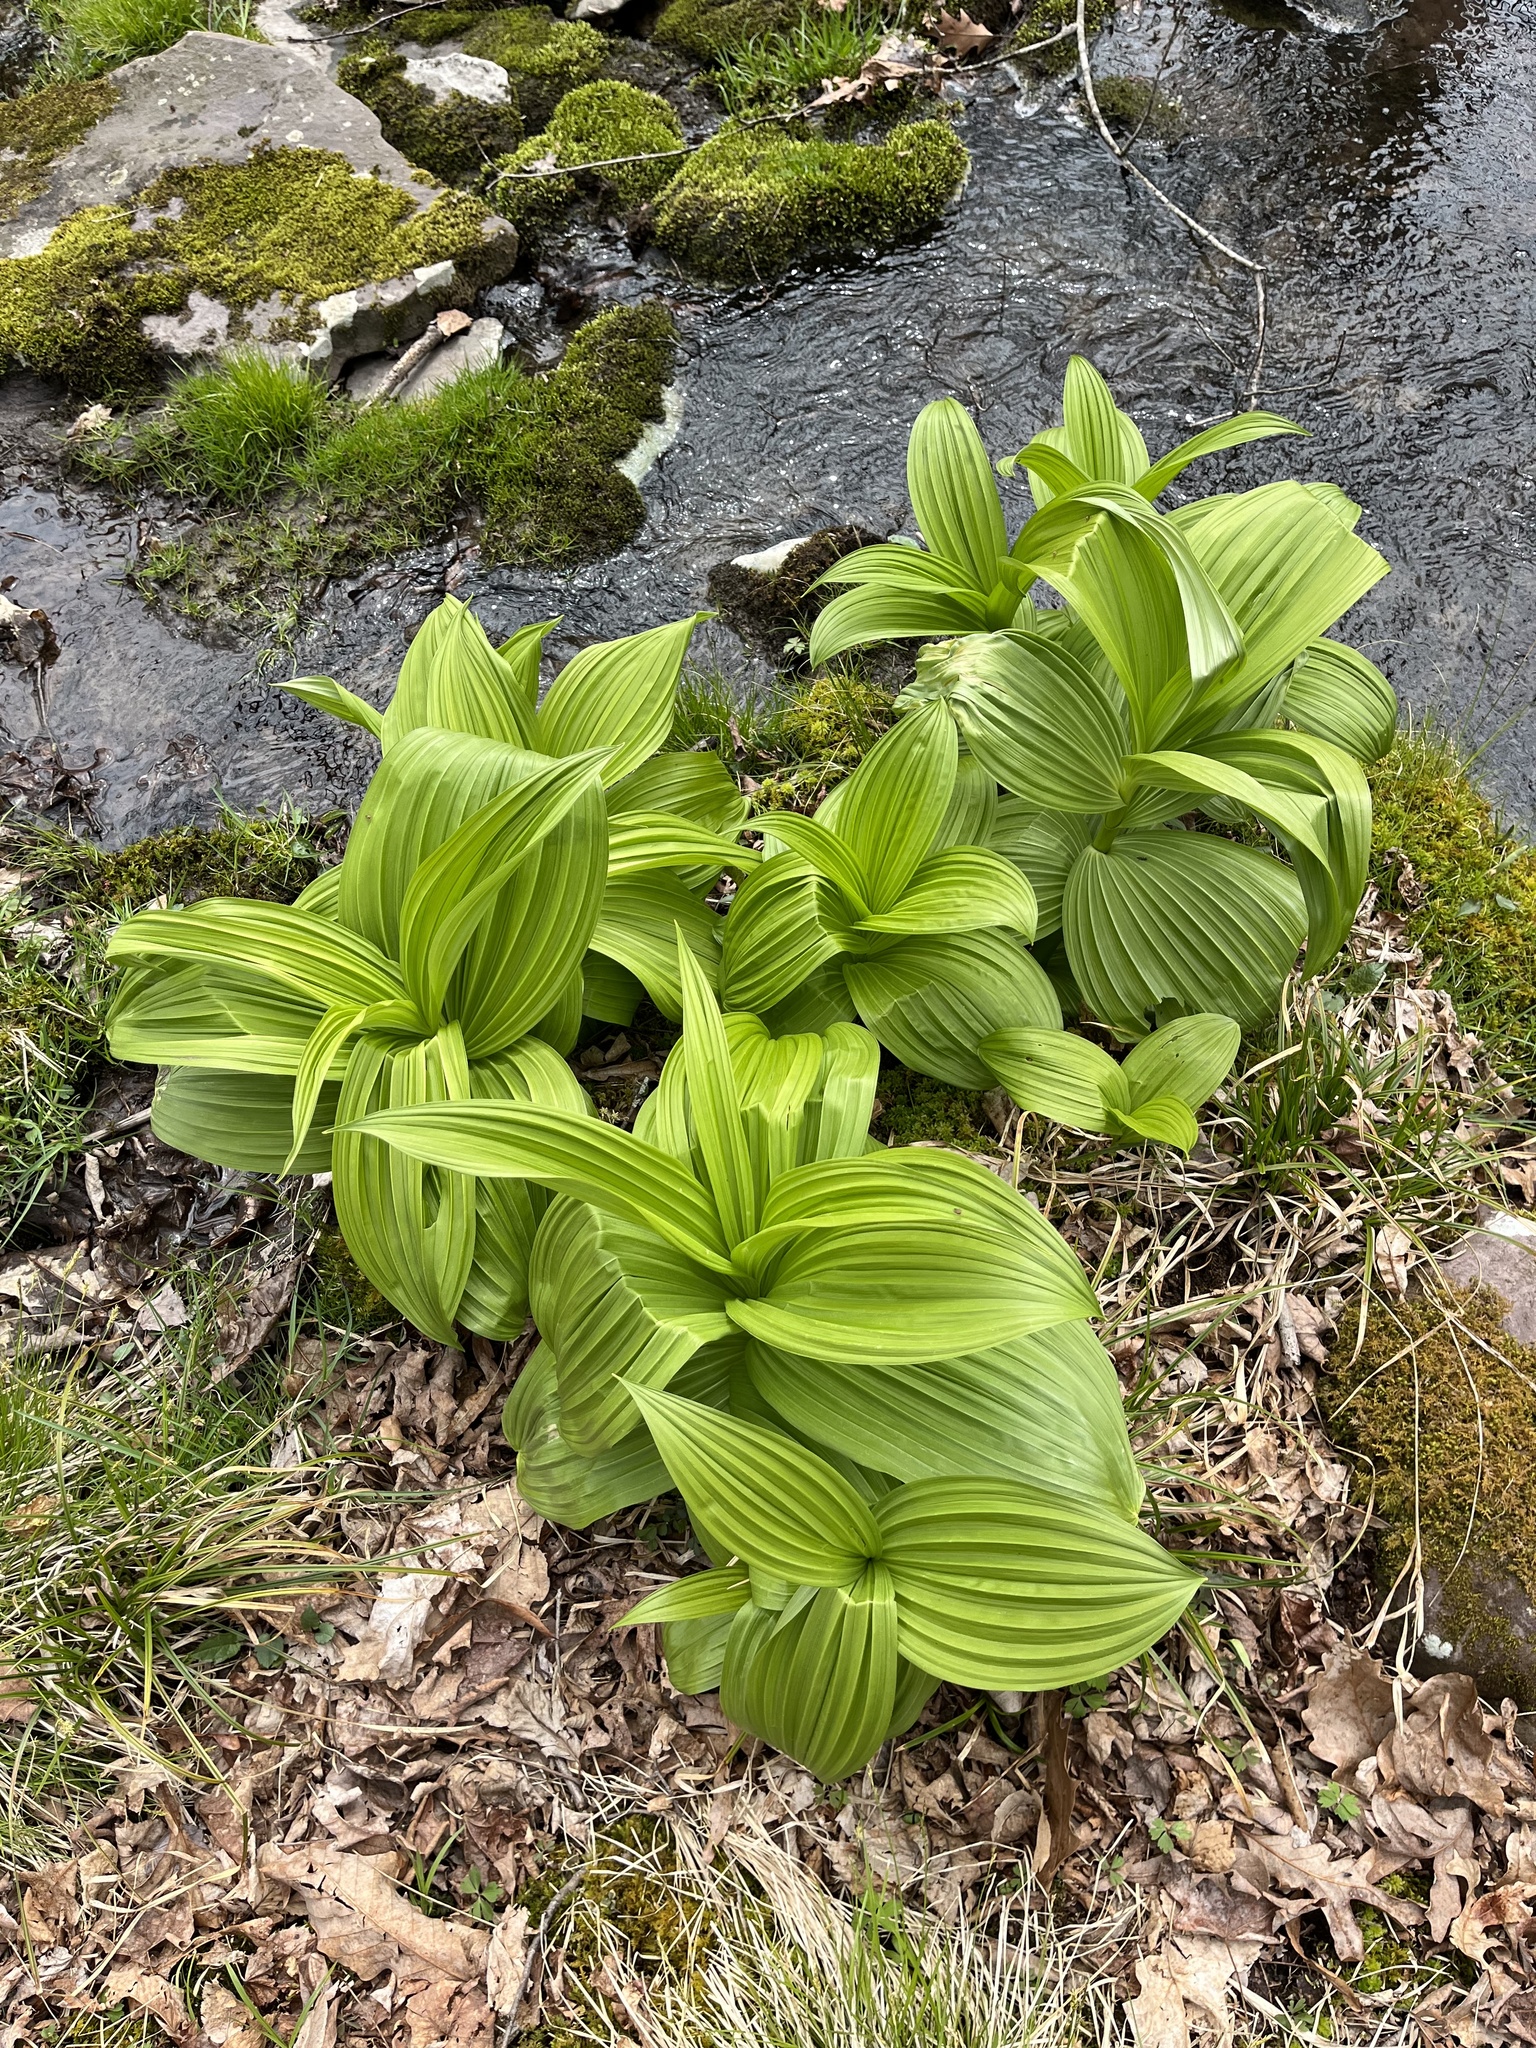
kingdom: Plantae
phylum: Tracheophyta
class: Liliopsida
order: Liliales
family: Melanthiaceae
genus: Veratrum
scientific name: Veratrum viride
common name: American false hellebore
